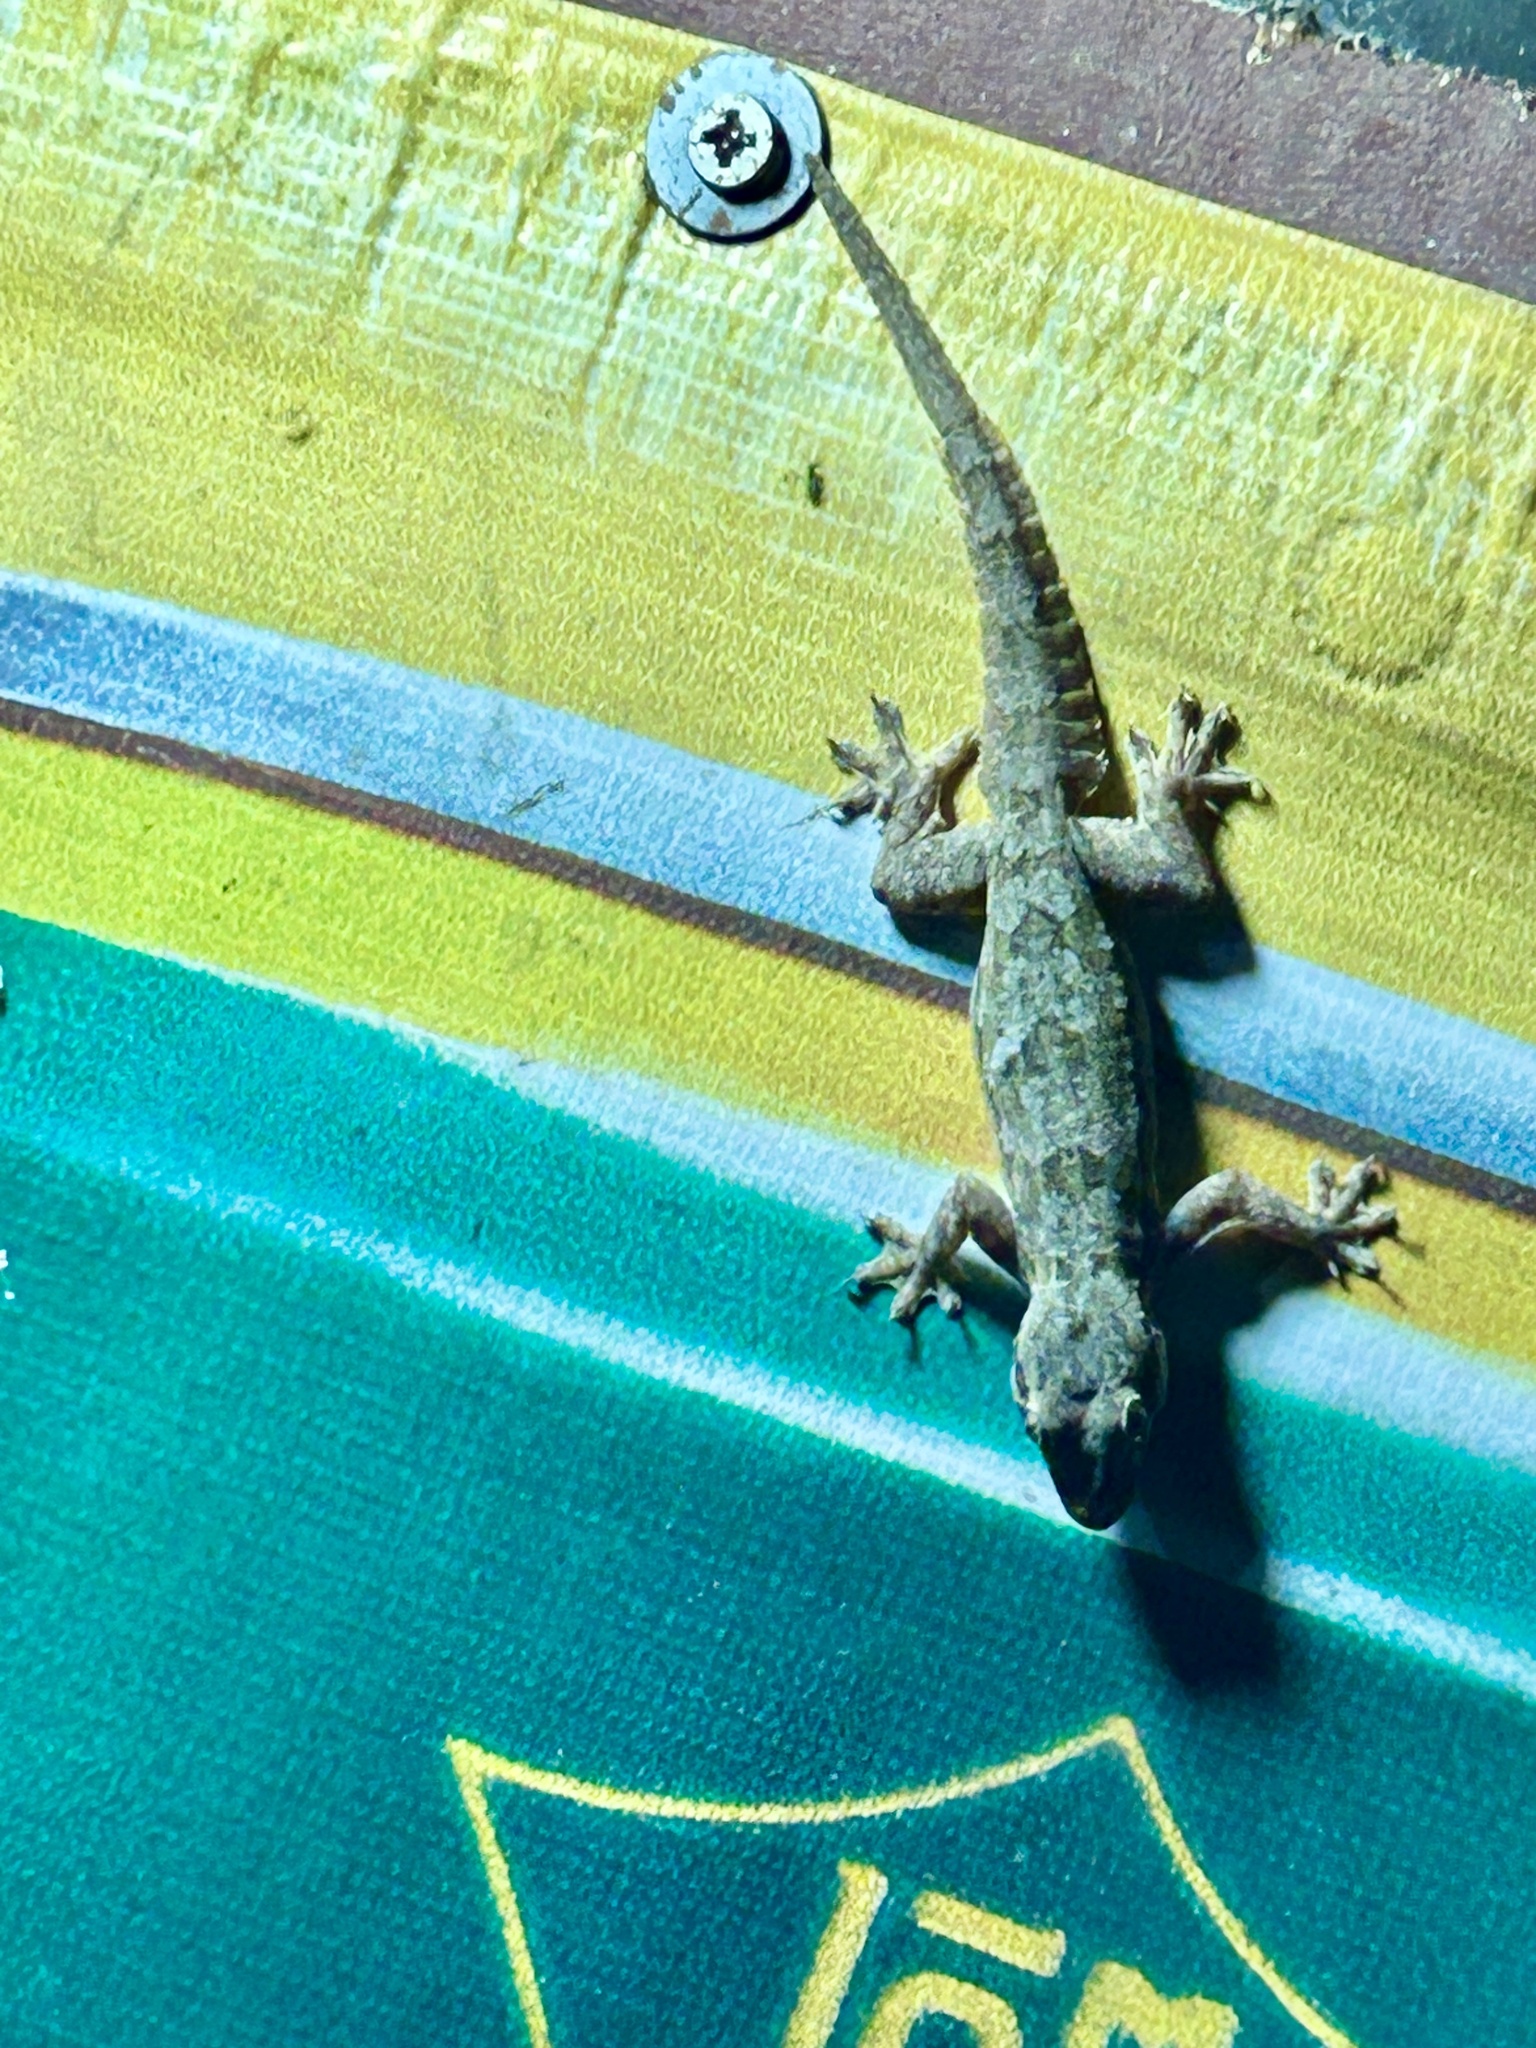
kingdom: Animalia
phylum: Chordata
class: Squamata
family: Gekkonidae
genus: Hemidactylus
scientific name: Hemidactylus platyurus
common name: Flat-tailed house gecko
